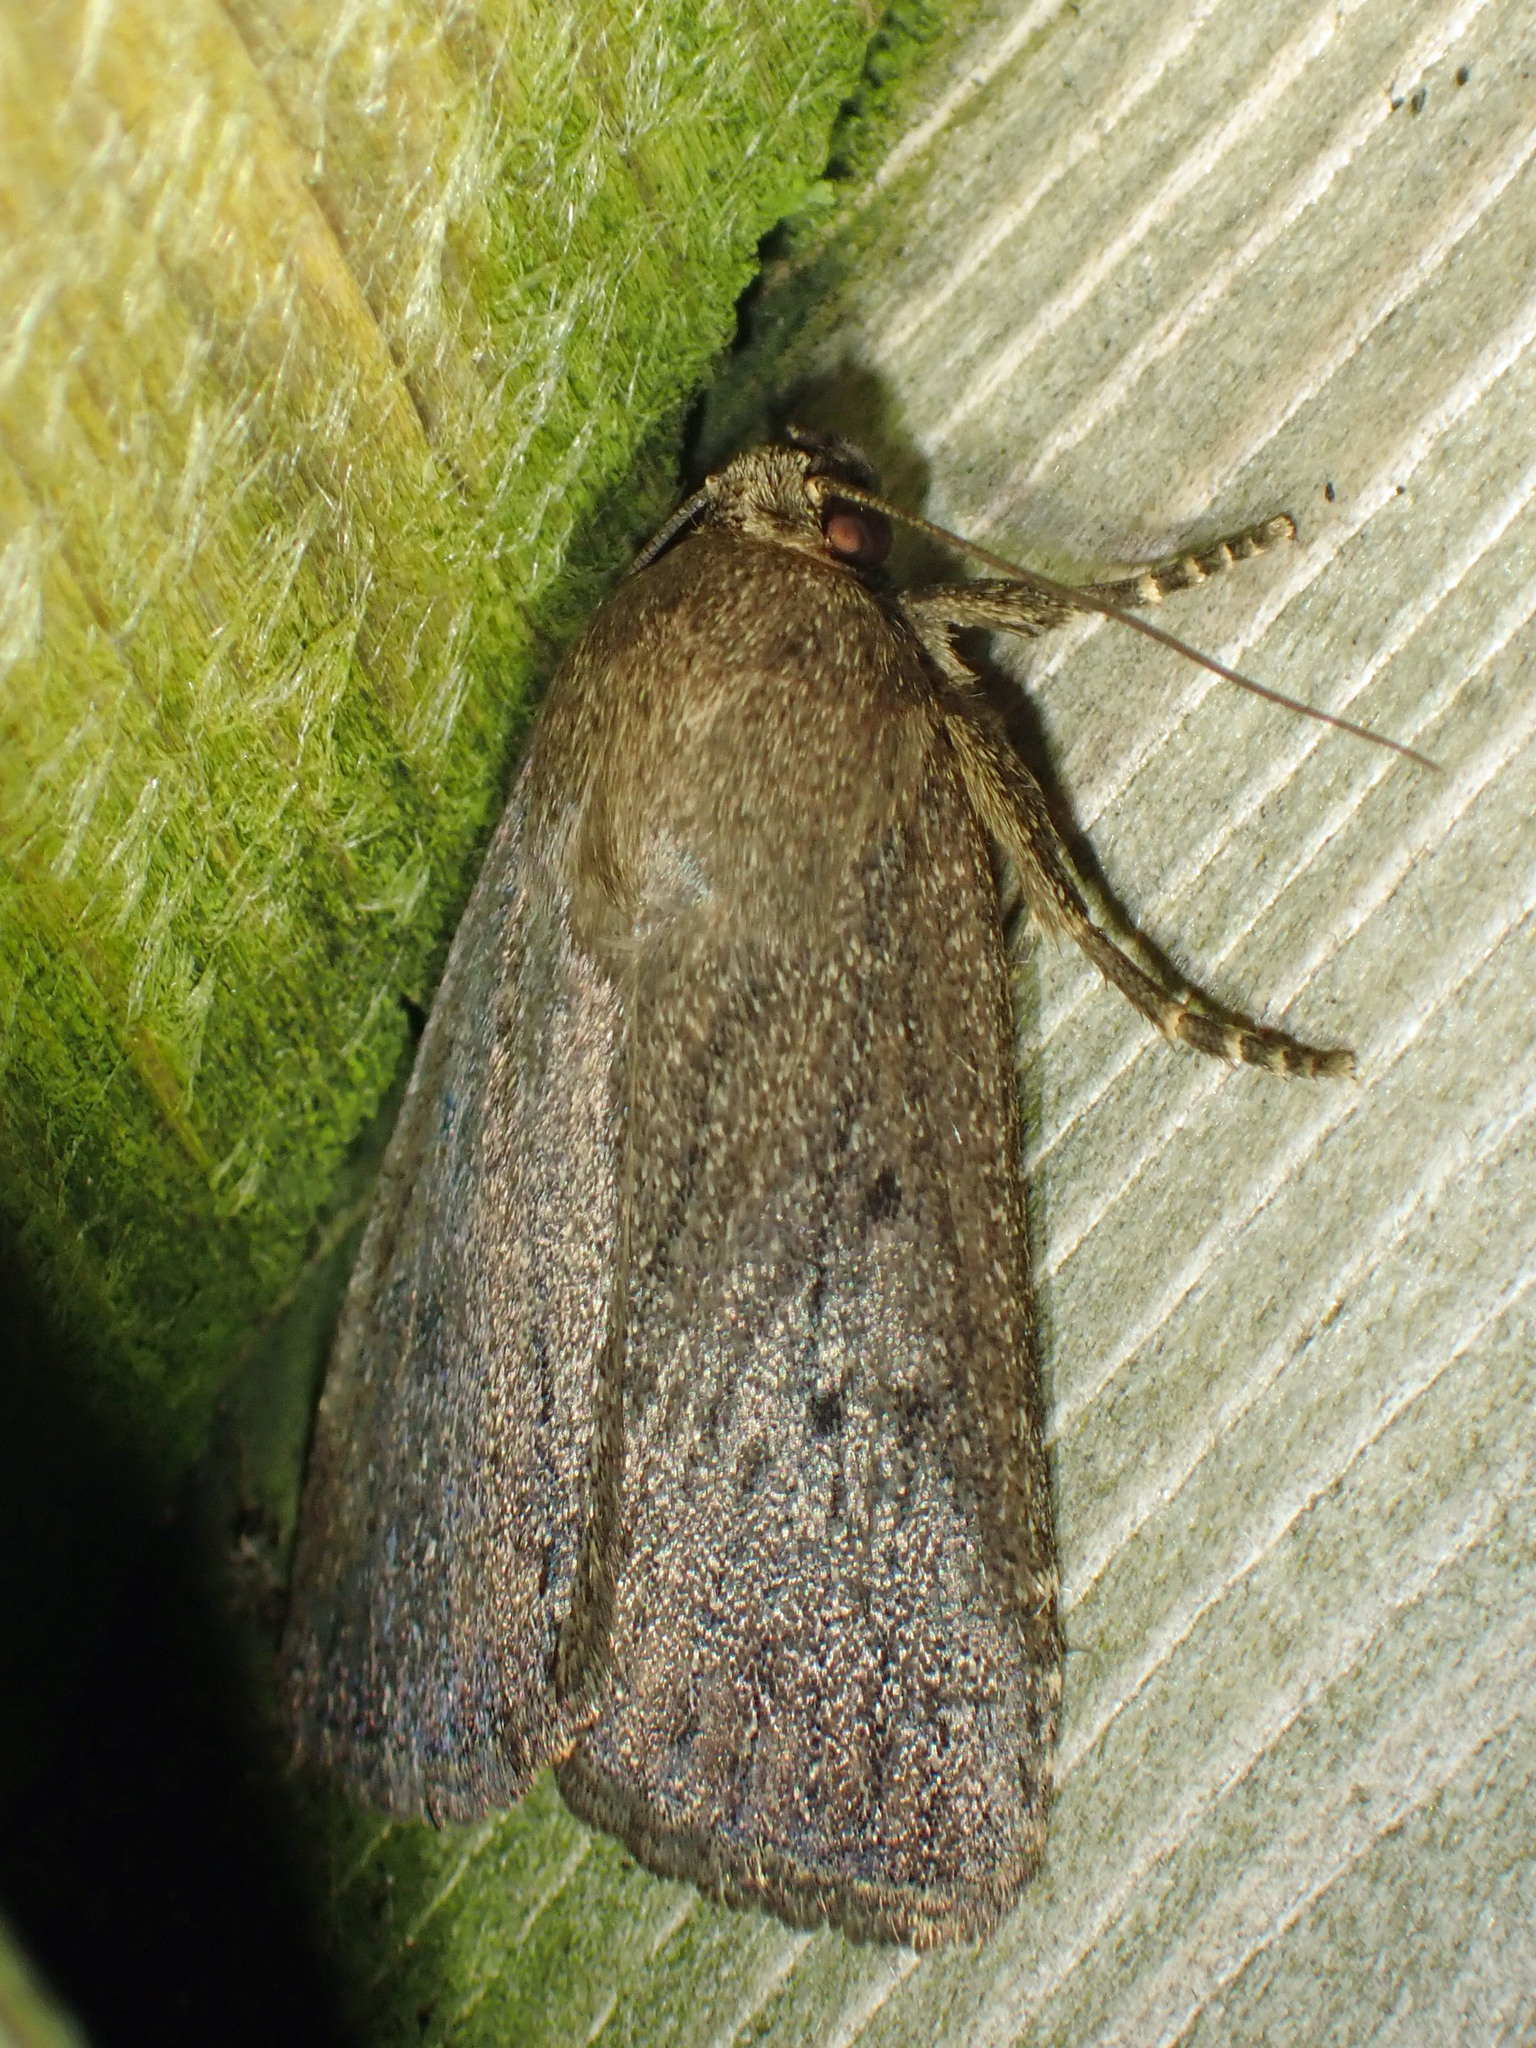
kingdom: Animalia
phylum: Arthropoda
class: Insecta
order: Lepidoptera
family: Noctuidae
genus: Amphipyra
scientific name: Amphipyra tragopoginis
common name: Mouse moth
